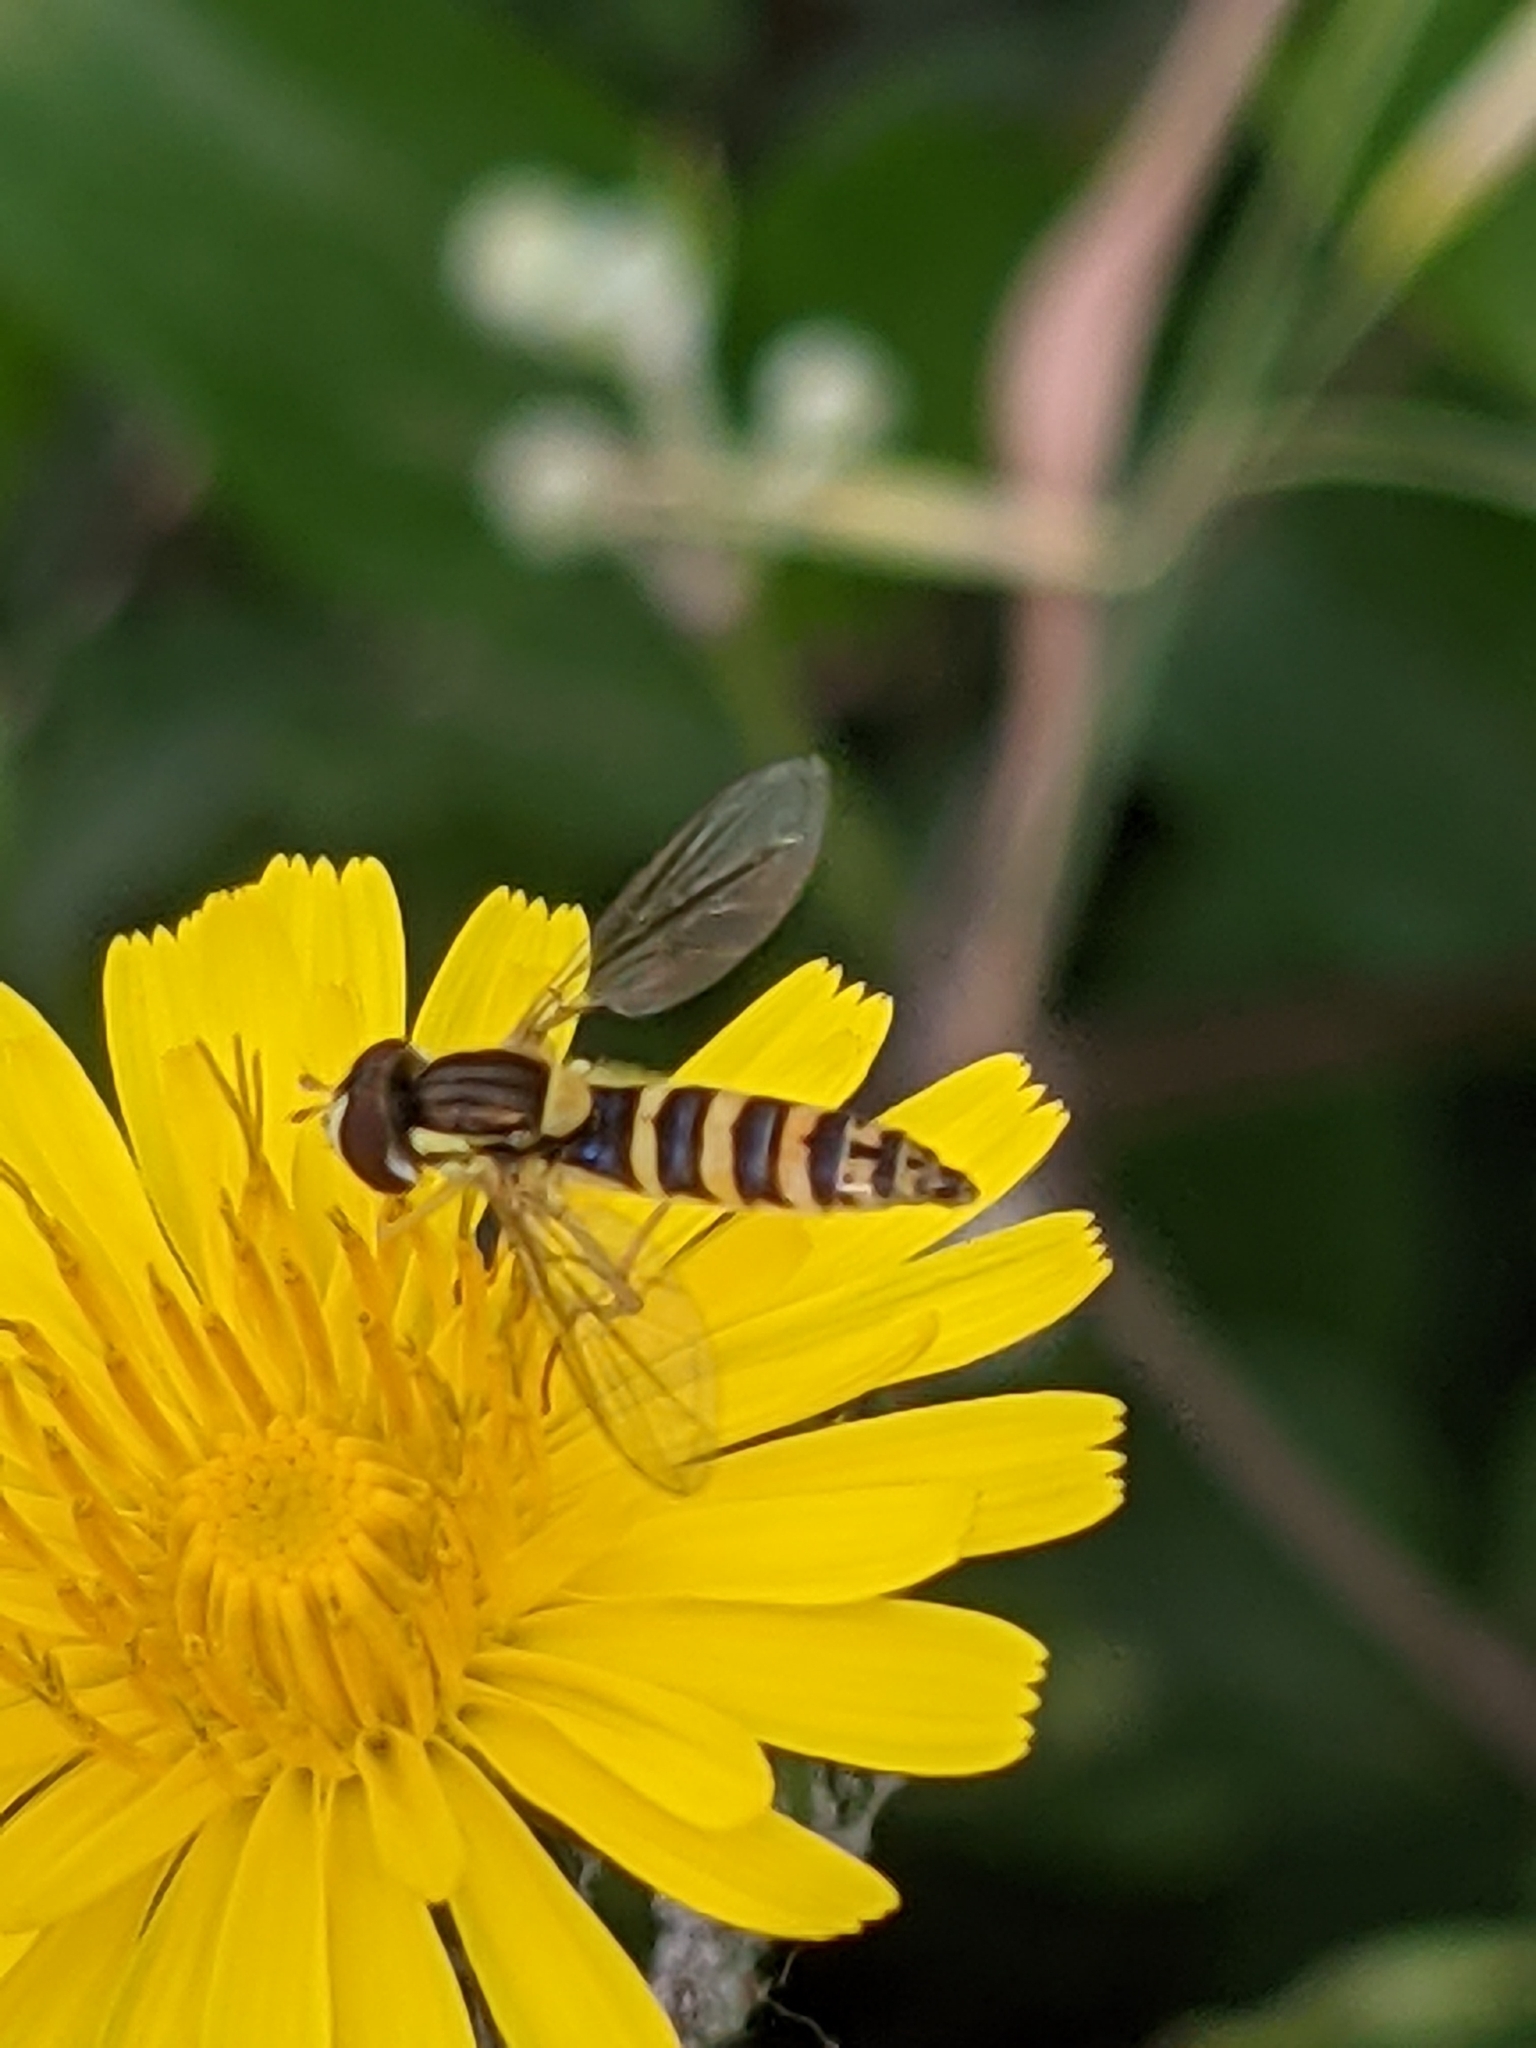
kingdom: Animalia
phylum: Arthropoda
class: Insecta
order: Diptera
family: Syrphidae
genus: Sphaerophoria
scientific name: Sphaerophoria
